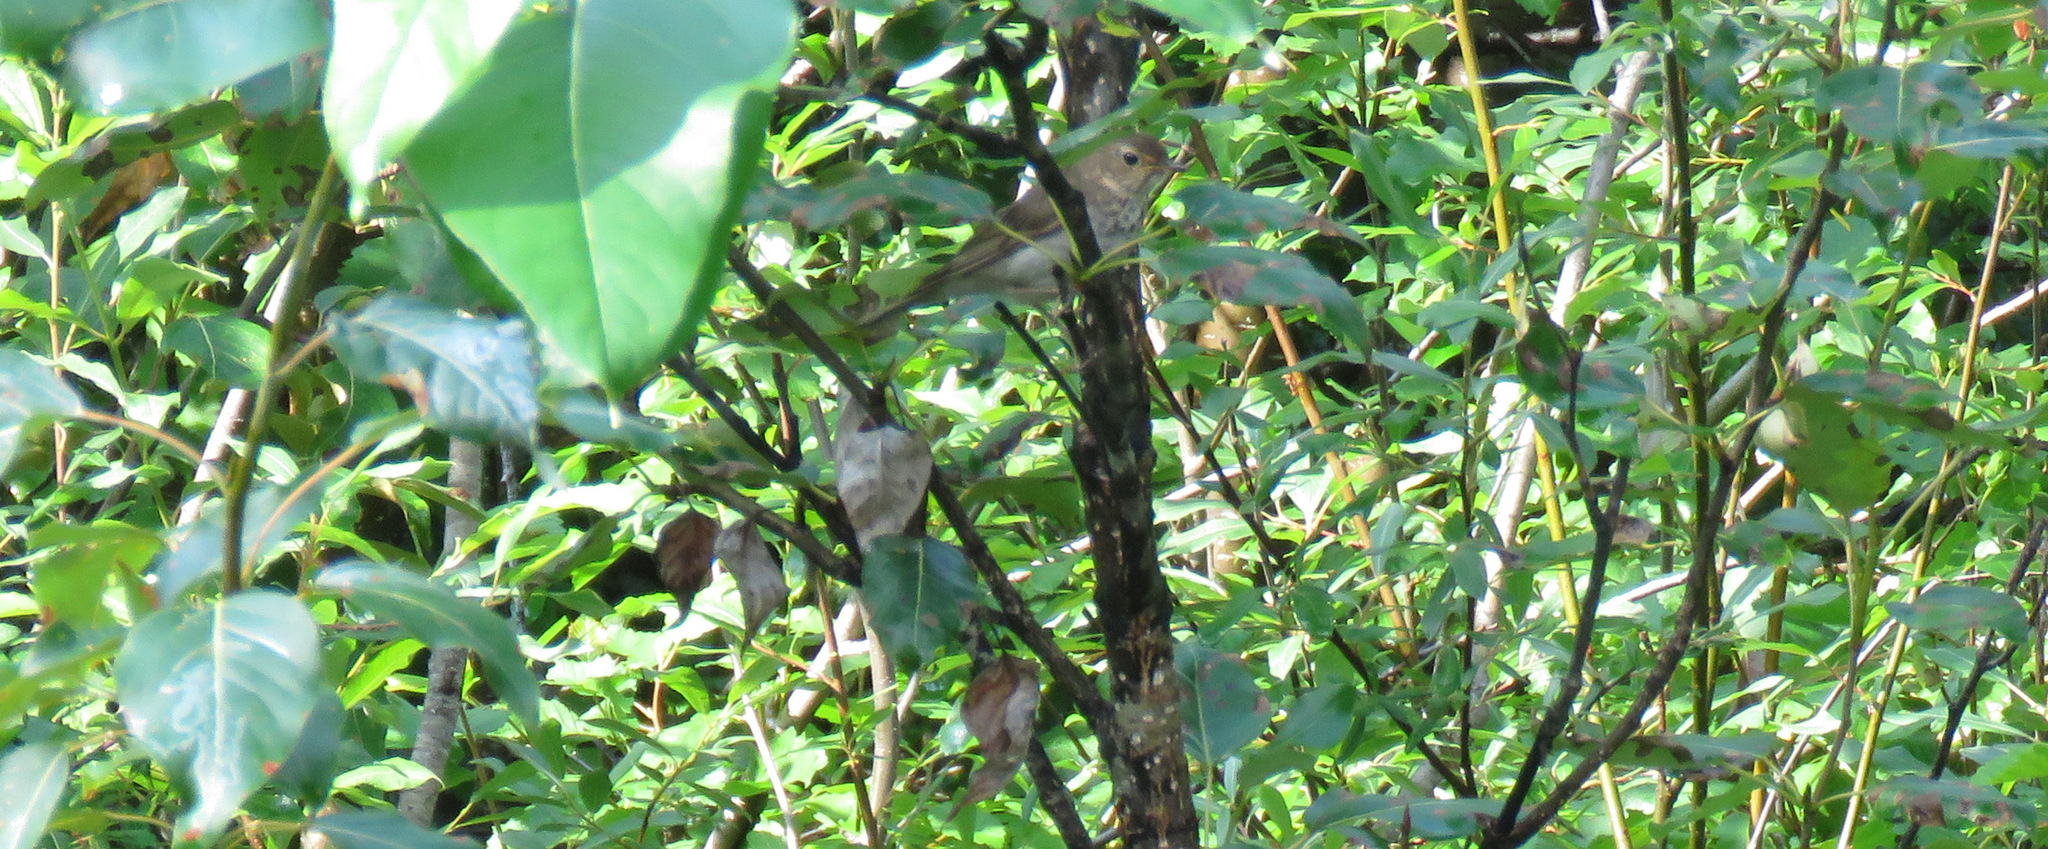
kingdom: Animalia
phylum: Chordata
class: Aves
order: Passeriformes
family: Turdidae
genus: Catharus
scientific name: Catharus ustulatus
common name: Swainson's thrush
